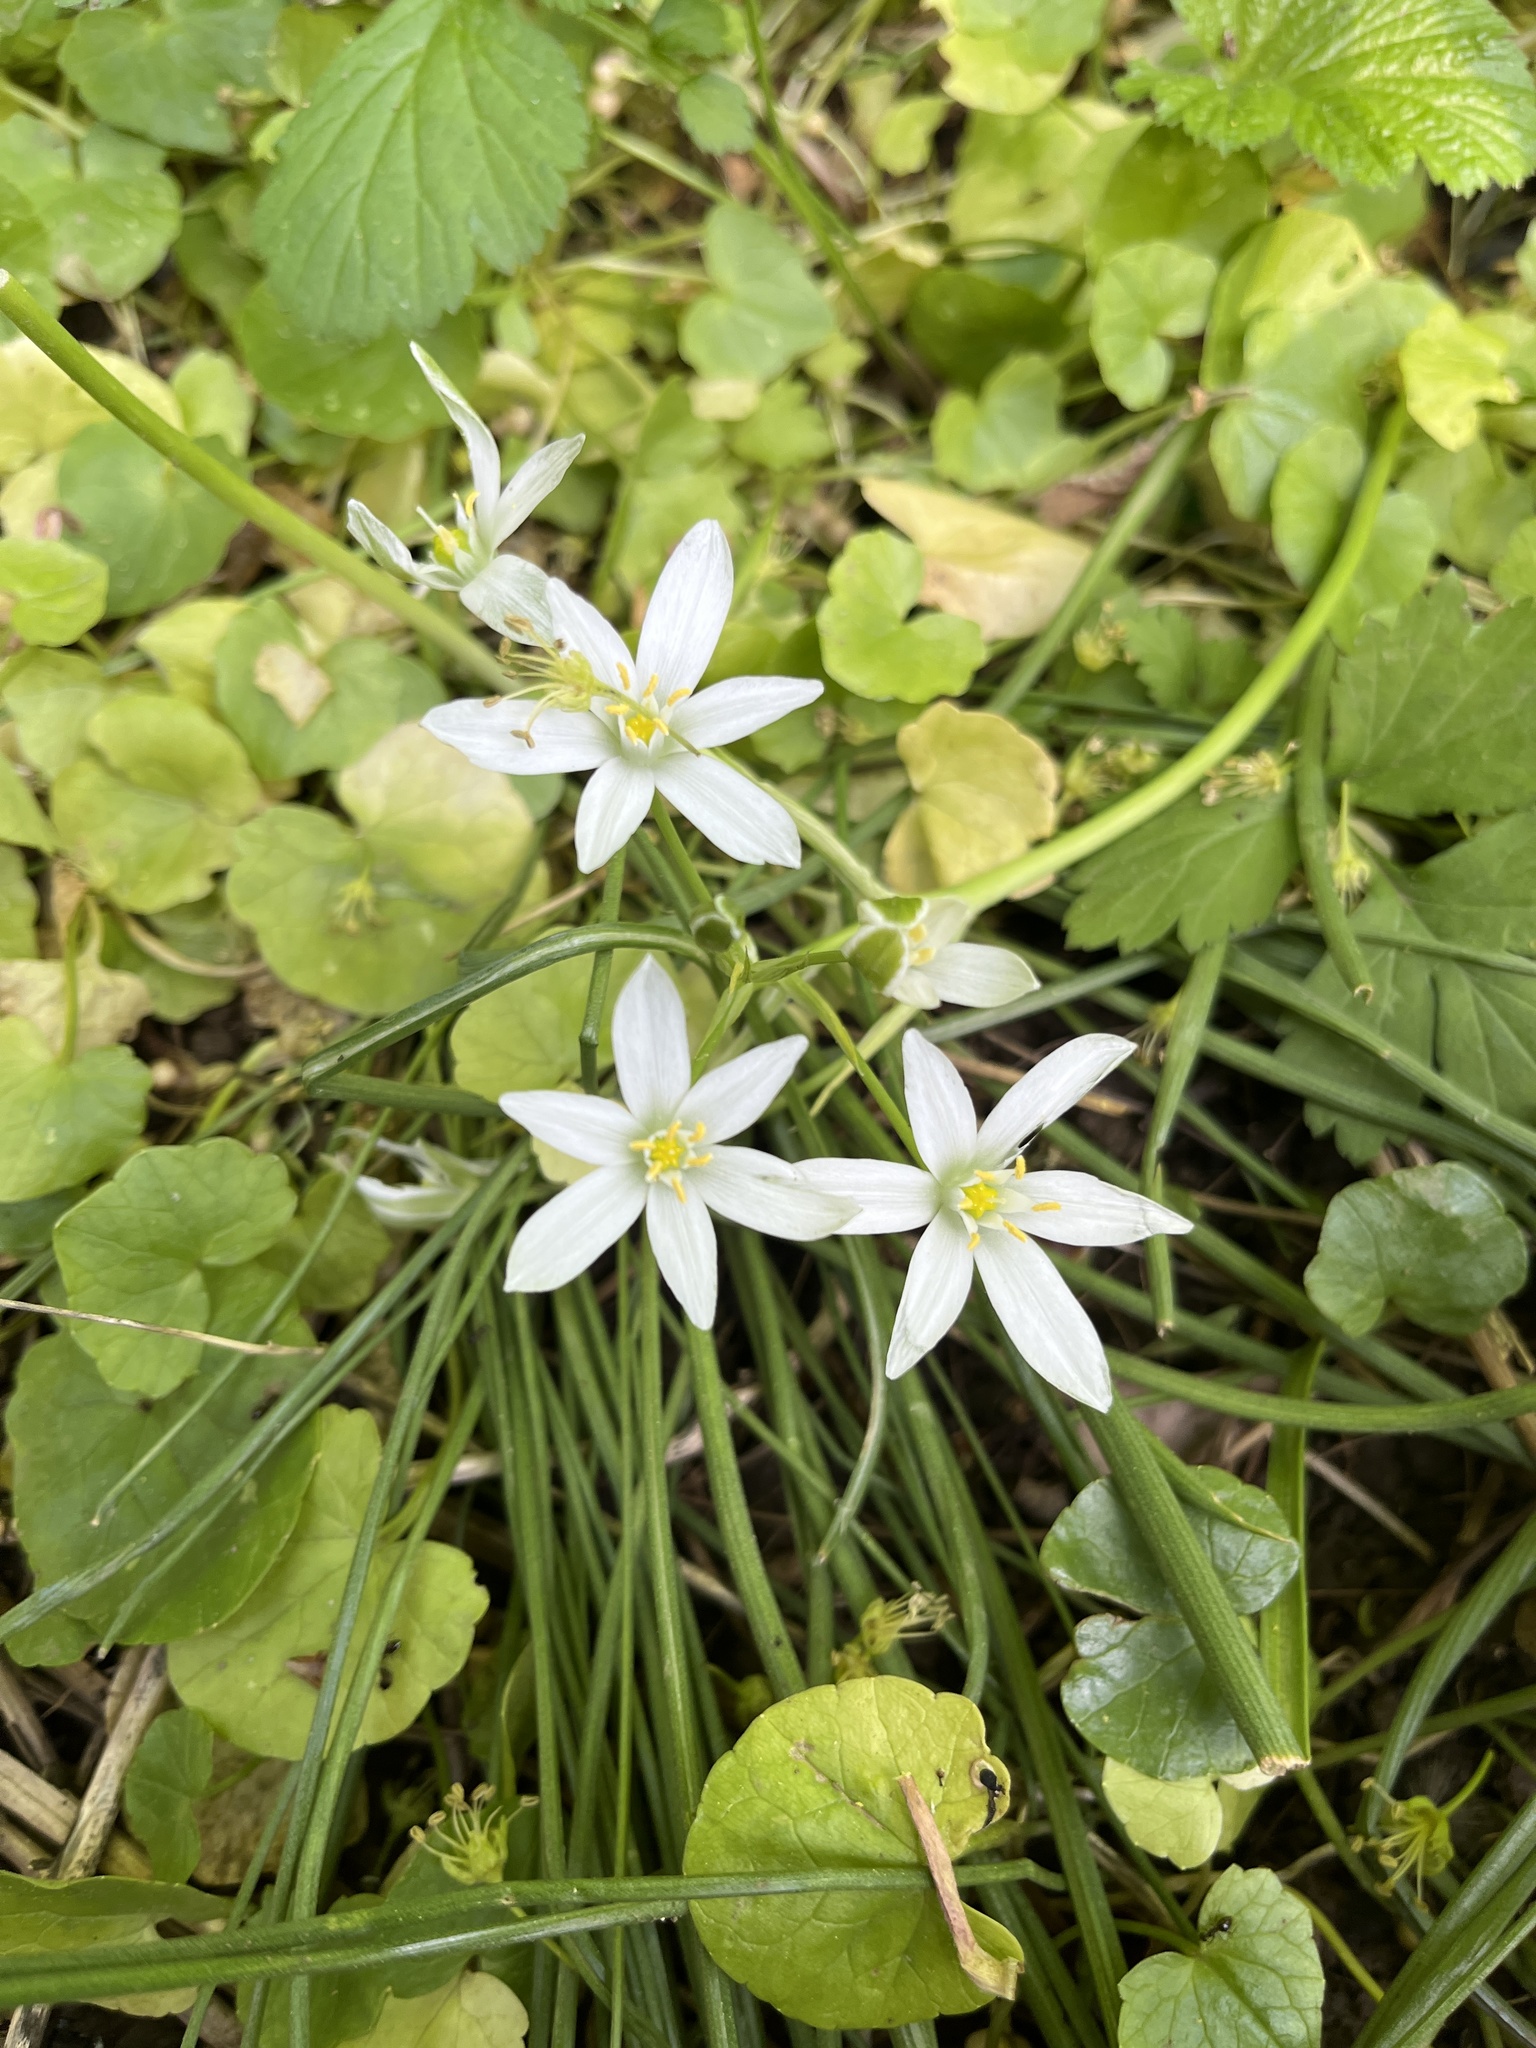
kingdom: Plantae
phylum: Tracheophyta
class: Liliopsida
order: Asparagales
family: Asparagaceae
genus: Ornithogalum
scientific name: Ornithogalum umbellatum
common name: Garden star-of-bethlehem
